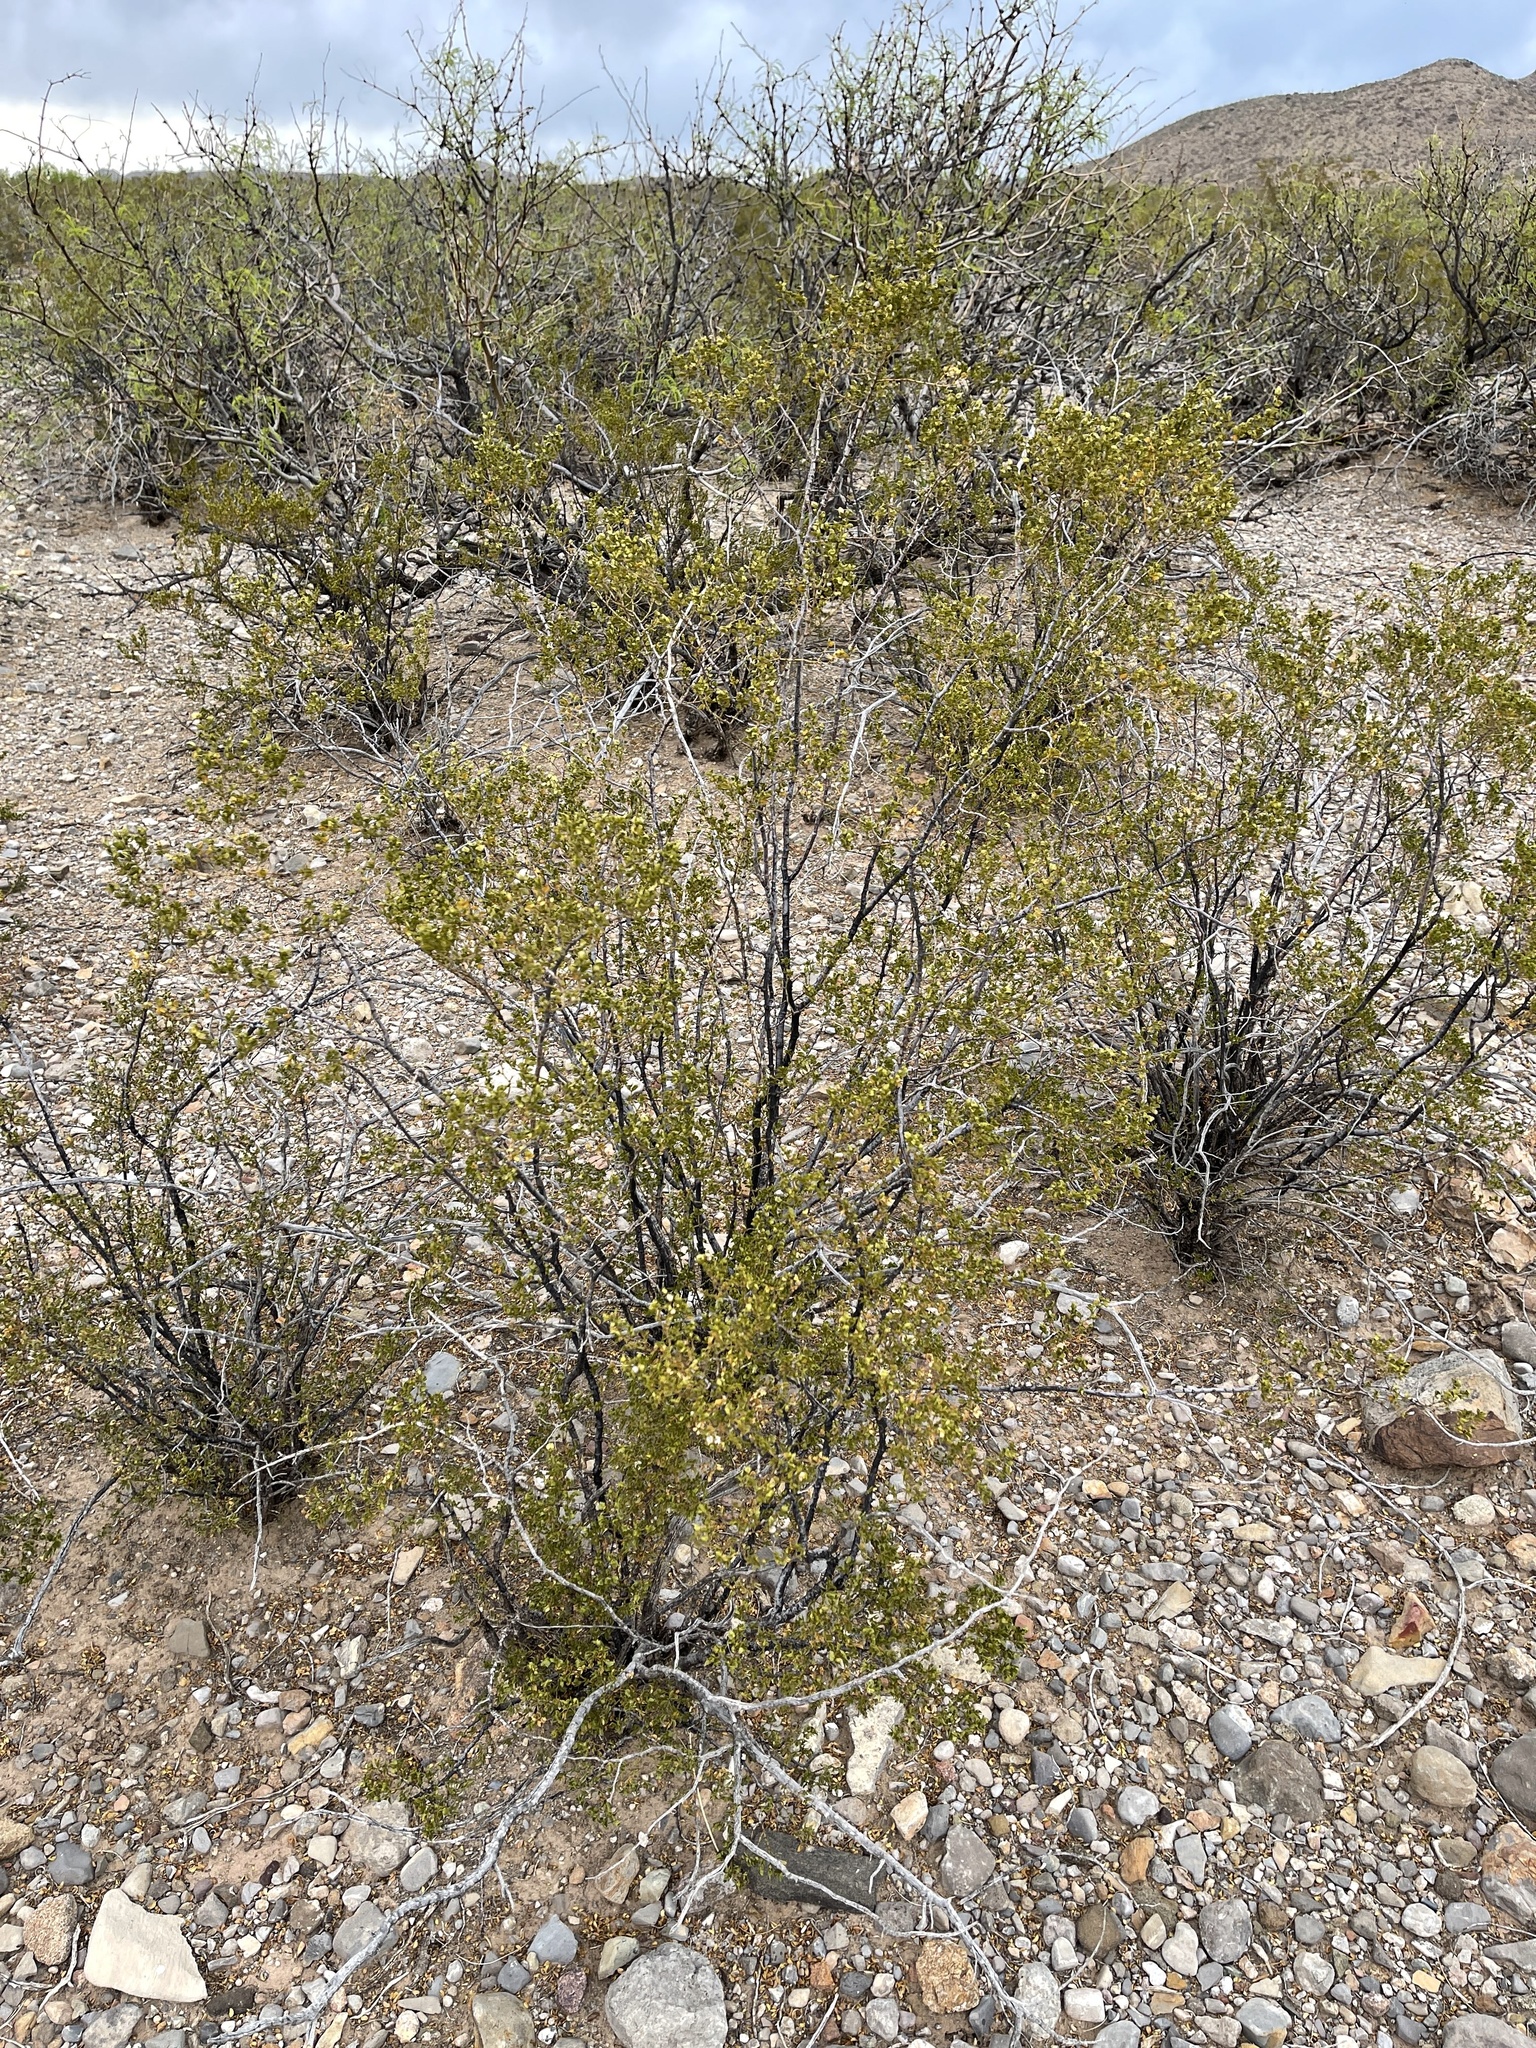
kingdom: Plantae
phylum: Tracheophyta
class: Magnoliopsida
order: Zygophyllales
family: Zygophyllaceae
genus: Larrea
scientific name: Larrea tridentata
